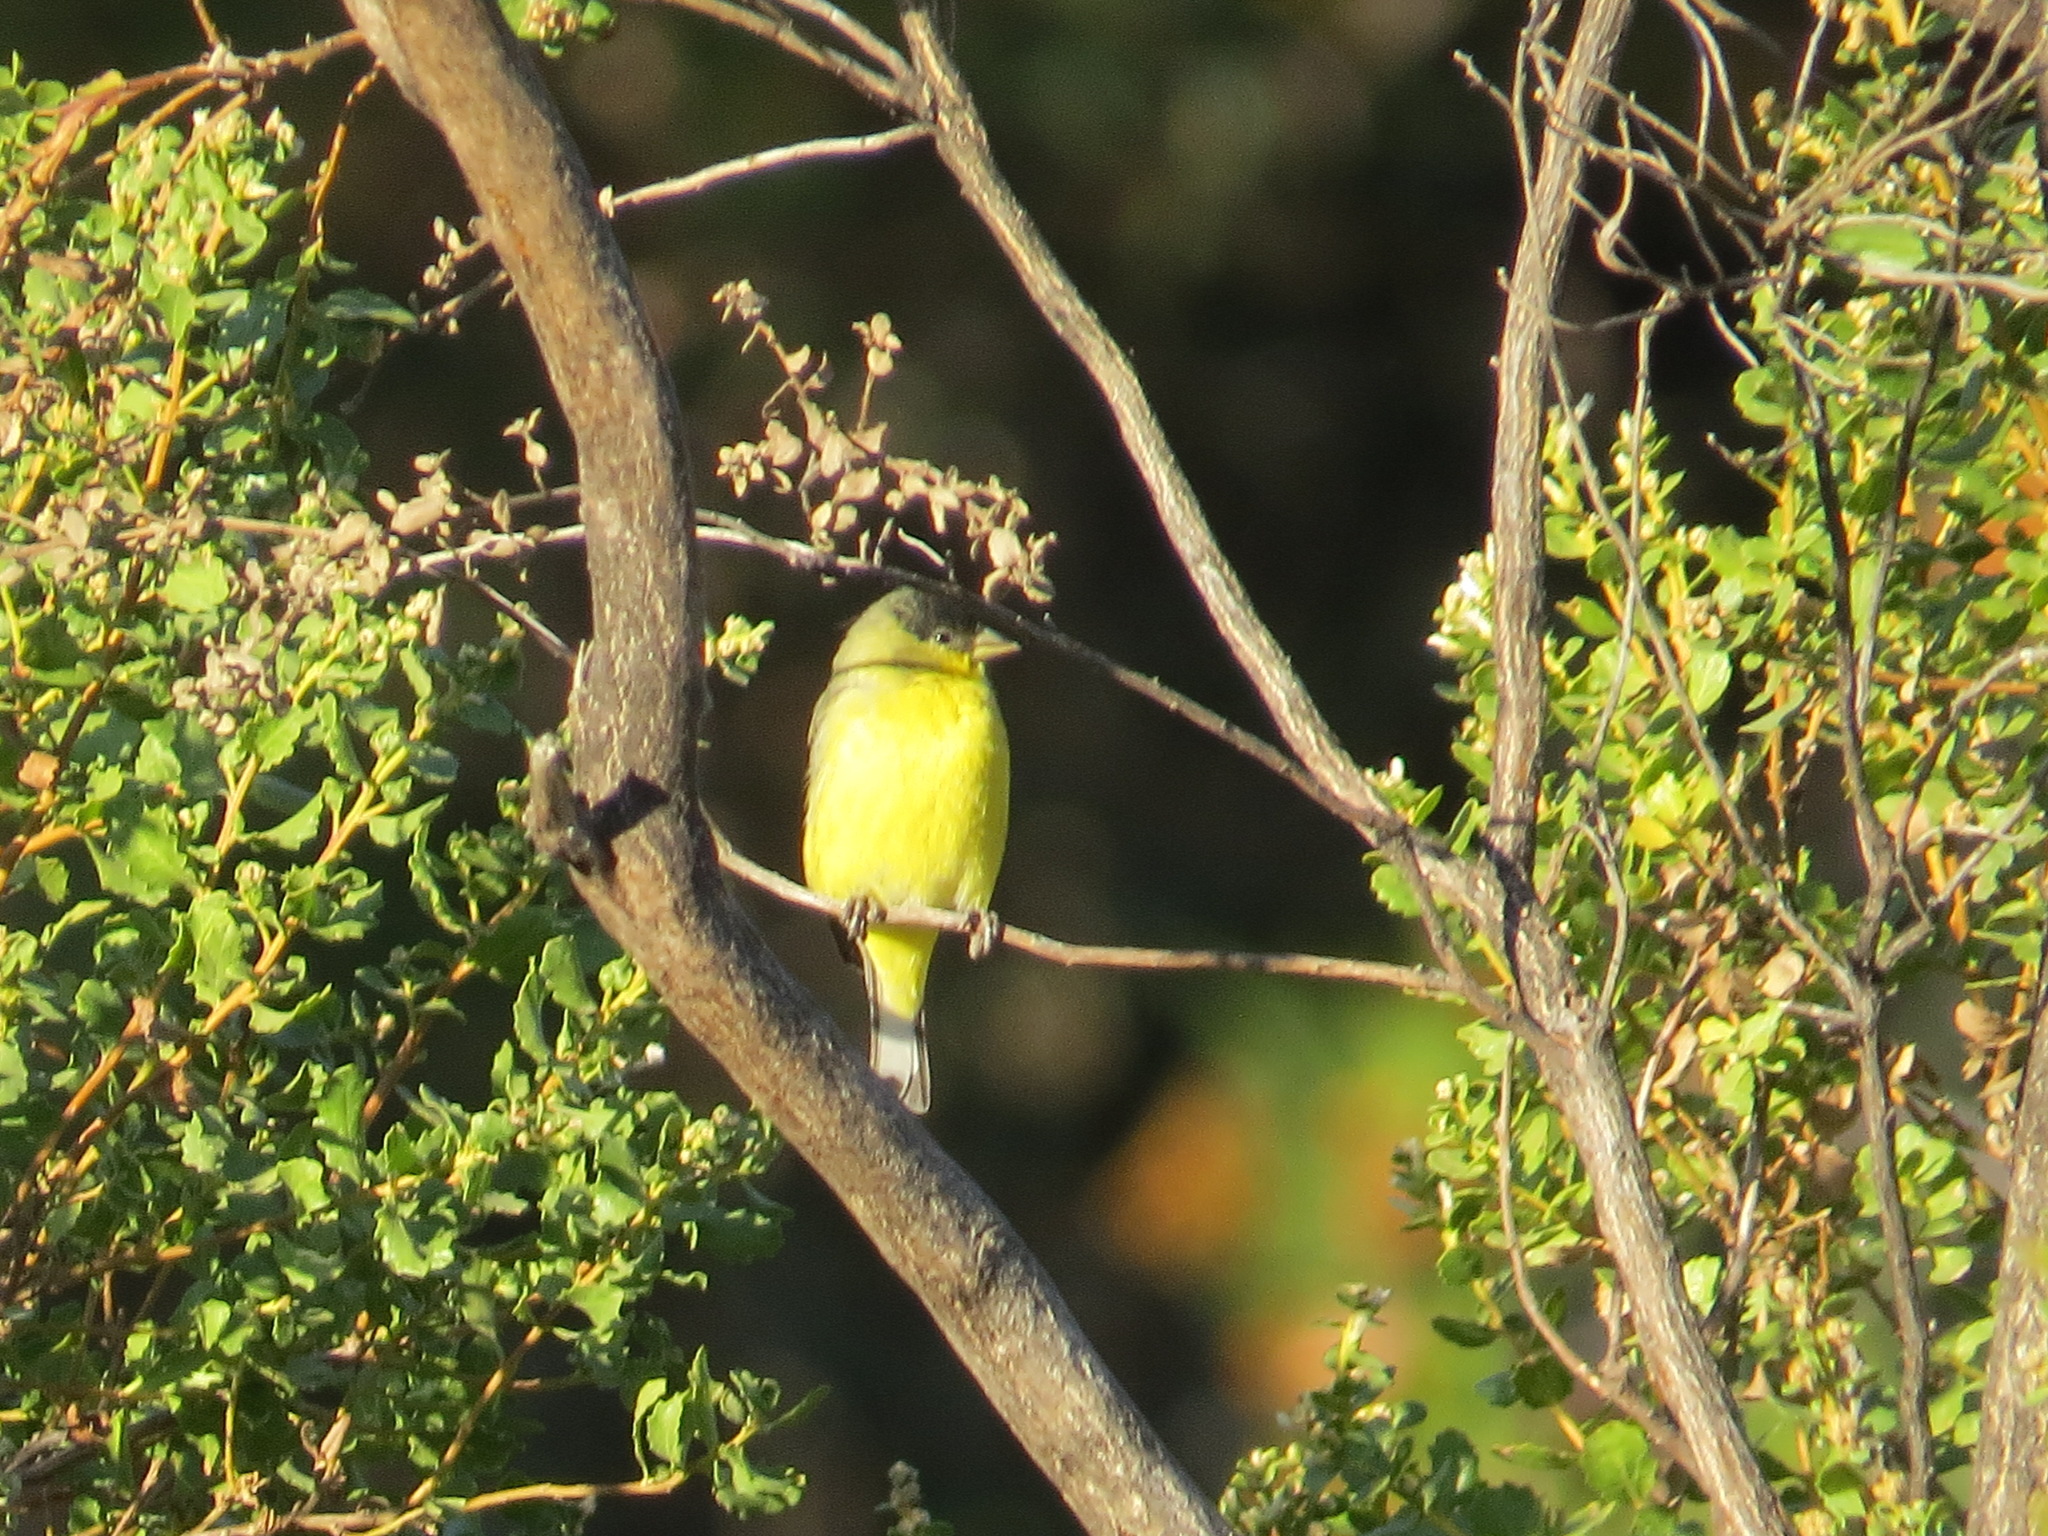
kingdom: Animalia
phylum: Chordata
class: Aves
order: Passeriformes
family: Fringillidae
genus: Spinus
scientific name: Spinus psaltria
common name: Lesser goldfinch
